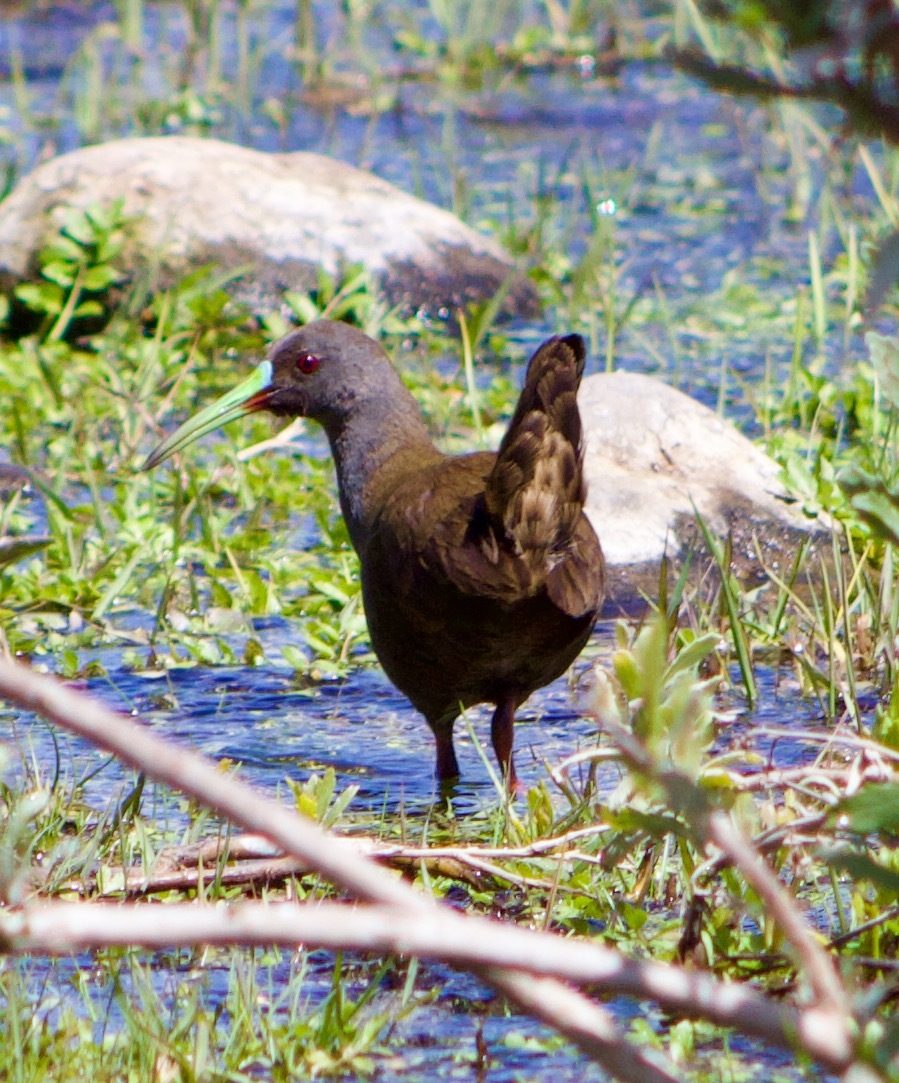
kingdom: Animalia
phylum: Chordata
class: Aves
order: Gruiformes
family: Rallidae
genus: Pardirallus
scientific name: Pardirallus sanguinolentus
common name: Plumbeous rail
